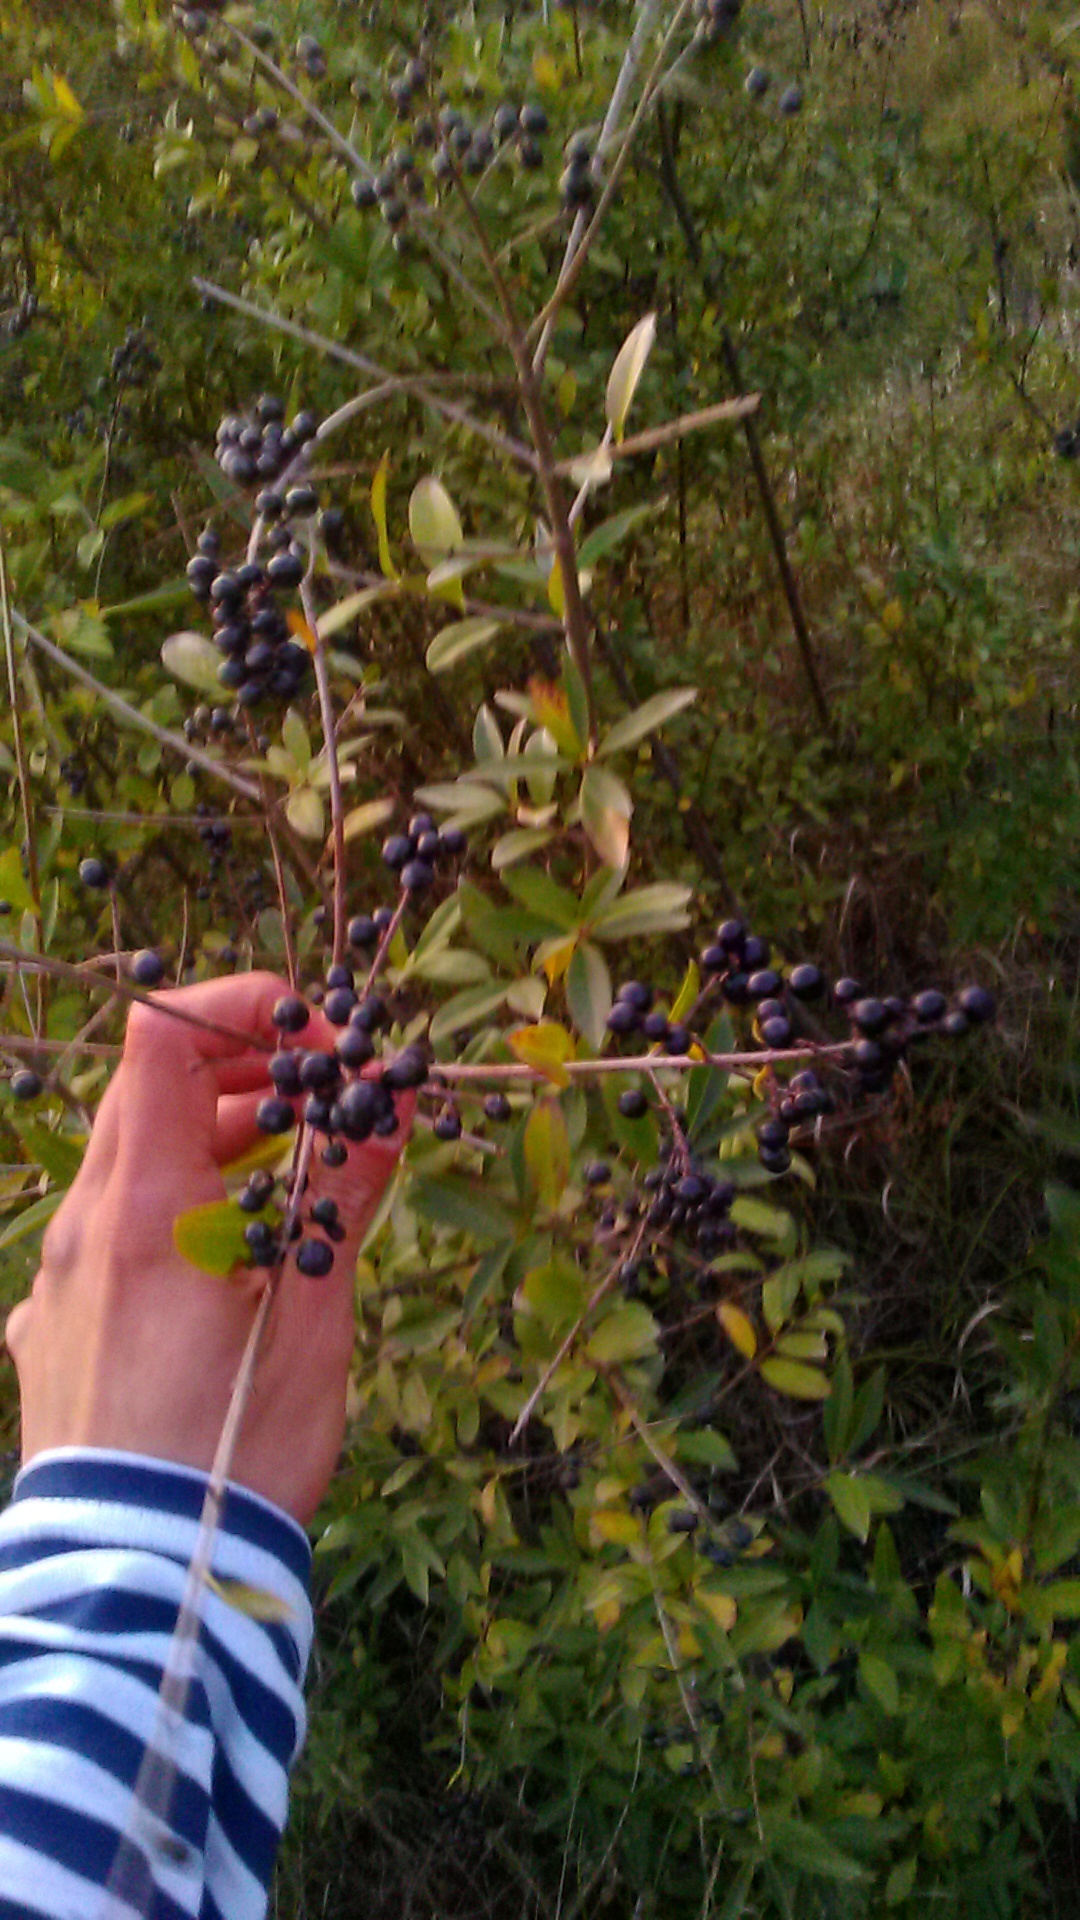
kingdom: Plantae
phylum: Tracheophyta
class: Magnoliopsida
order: Lamiales
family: Oleaceae
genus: Ligustrum
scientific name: Ligustrum vulgare
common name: Wild privet
